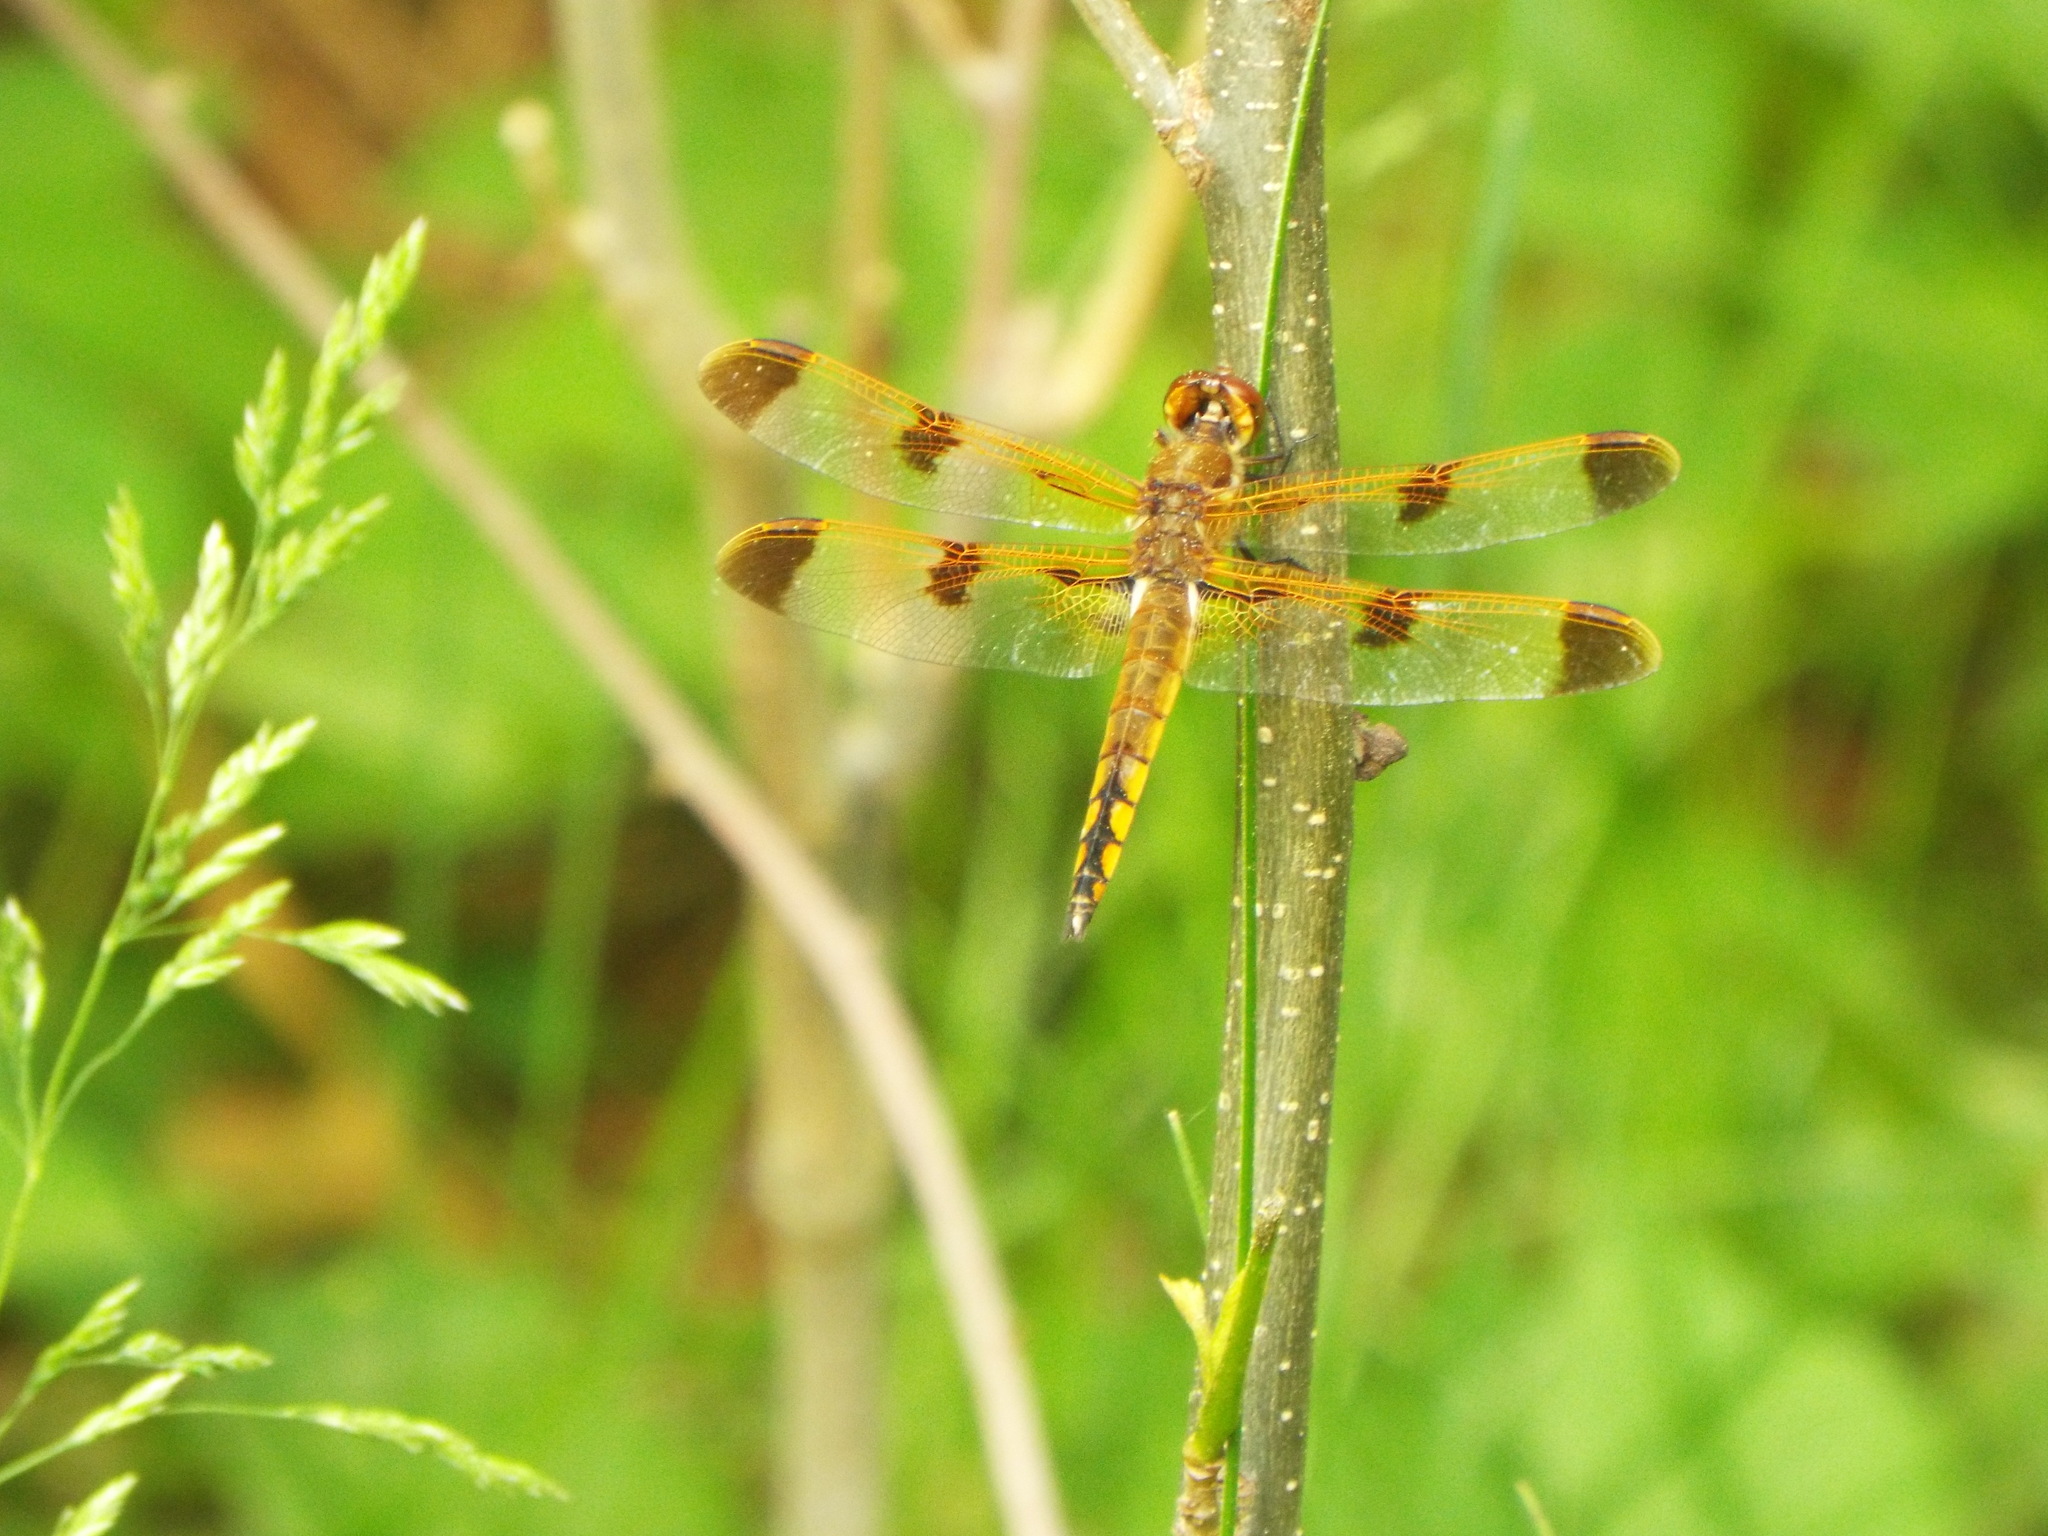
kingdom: Animalia
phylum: Arthropoda
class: Insecta
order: Odonata
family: Libellulidae
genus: Libellula
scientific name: Libellula semifasciata
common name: Painted skimmer
